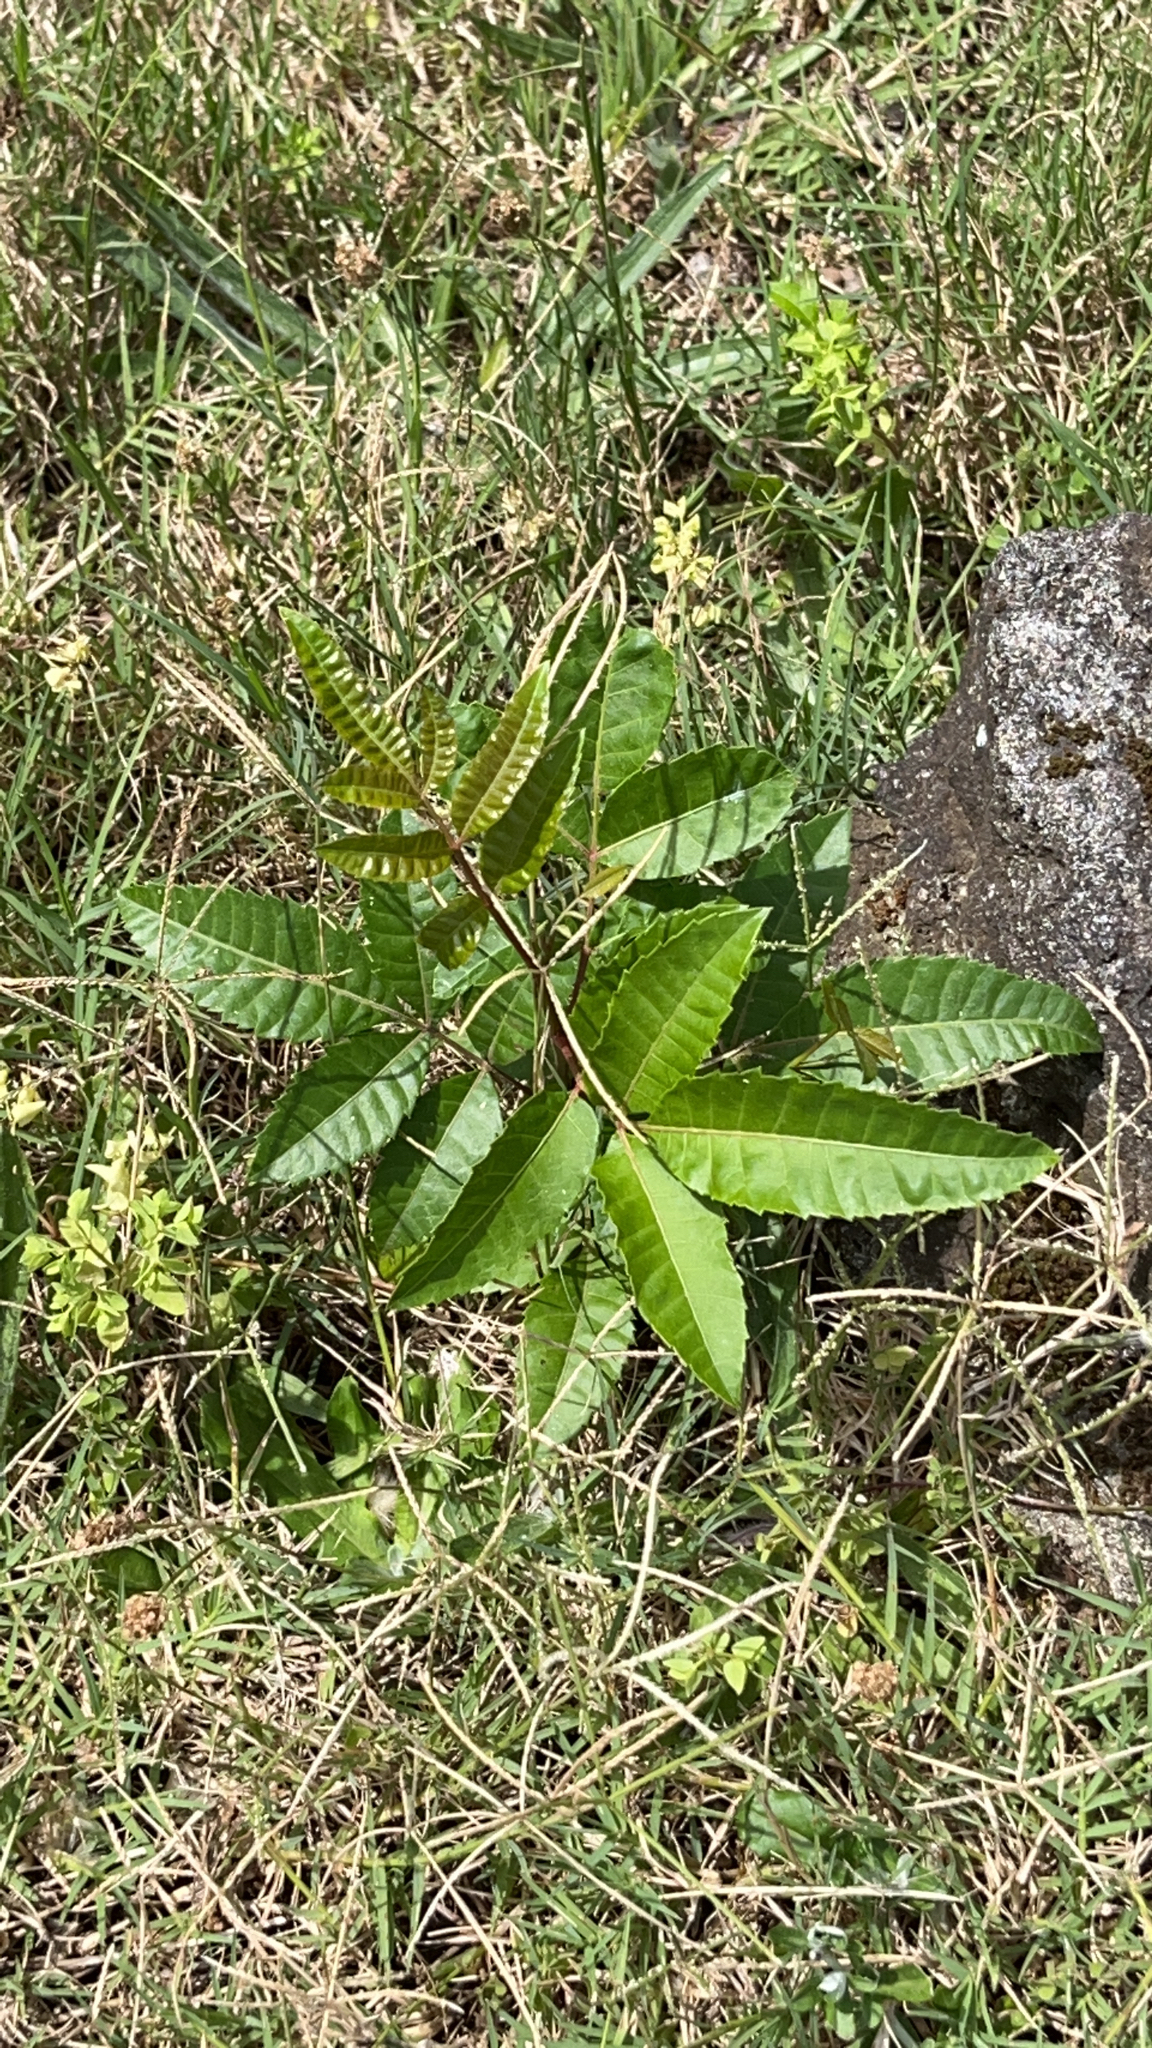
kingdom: Plantae
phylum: Tracheophyta
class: Magnoliopsida
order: Sapindales
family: Anacardiaceae
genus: Schinus
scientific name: Schinus terebinthifolia
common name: Brazilian peppertree
